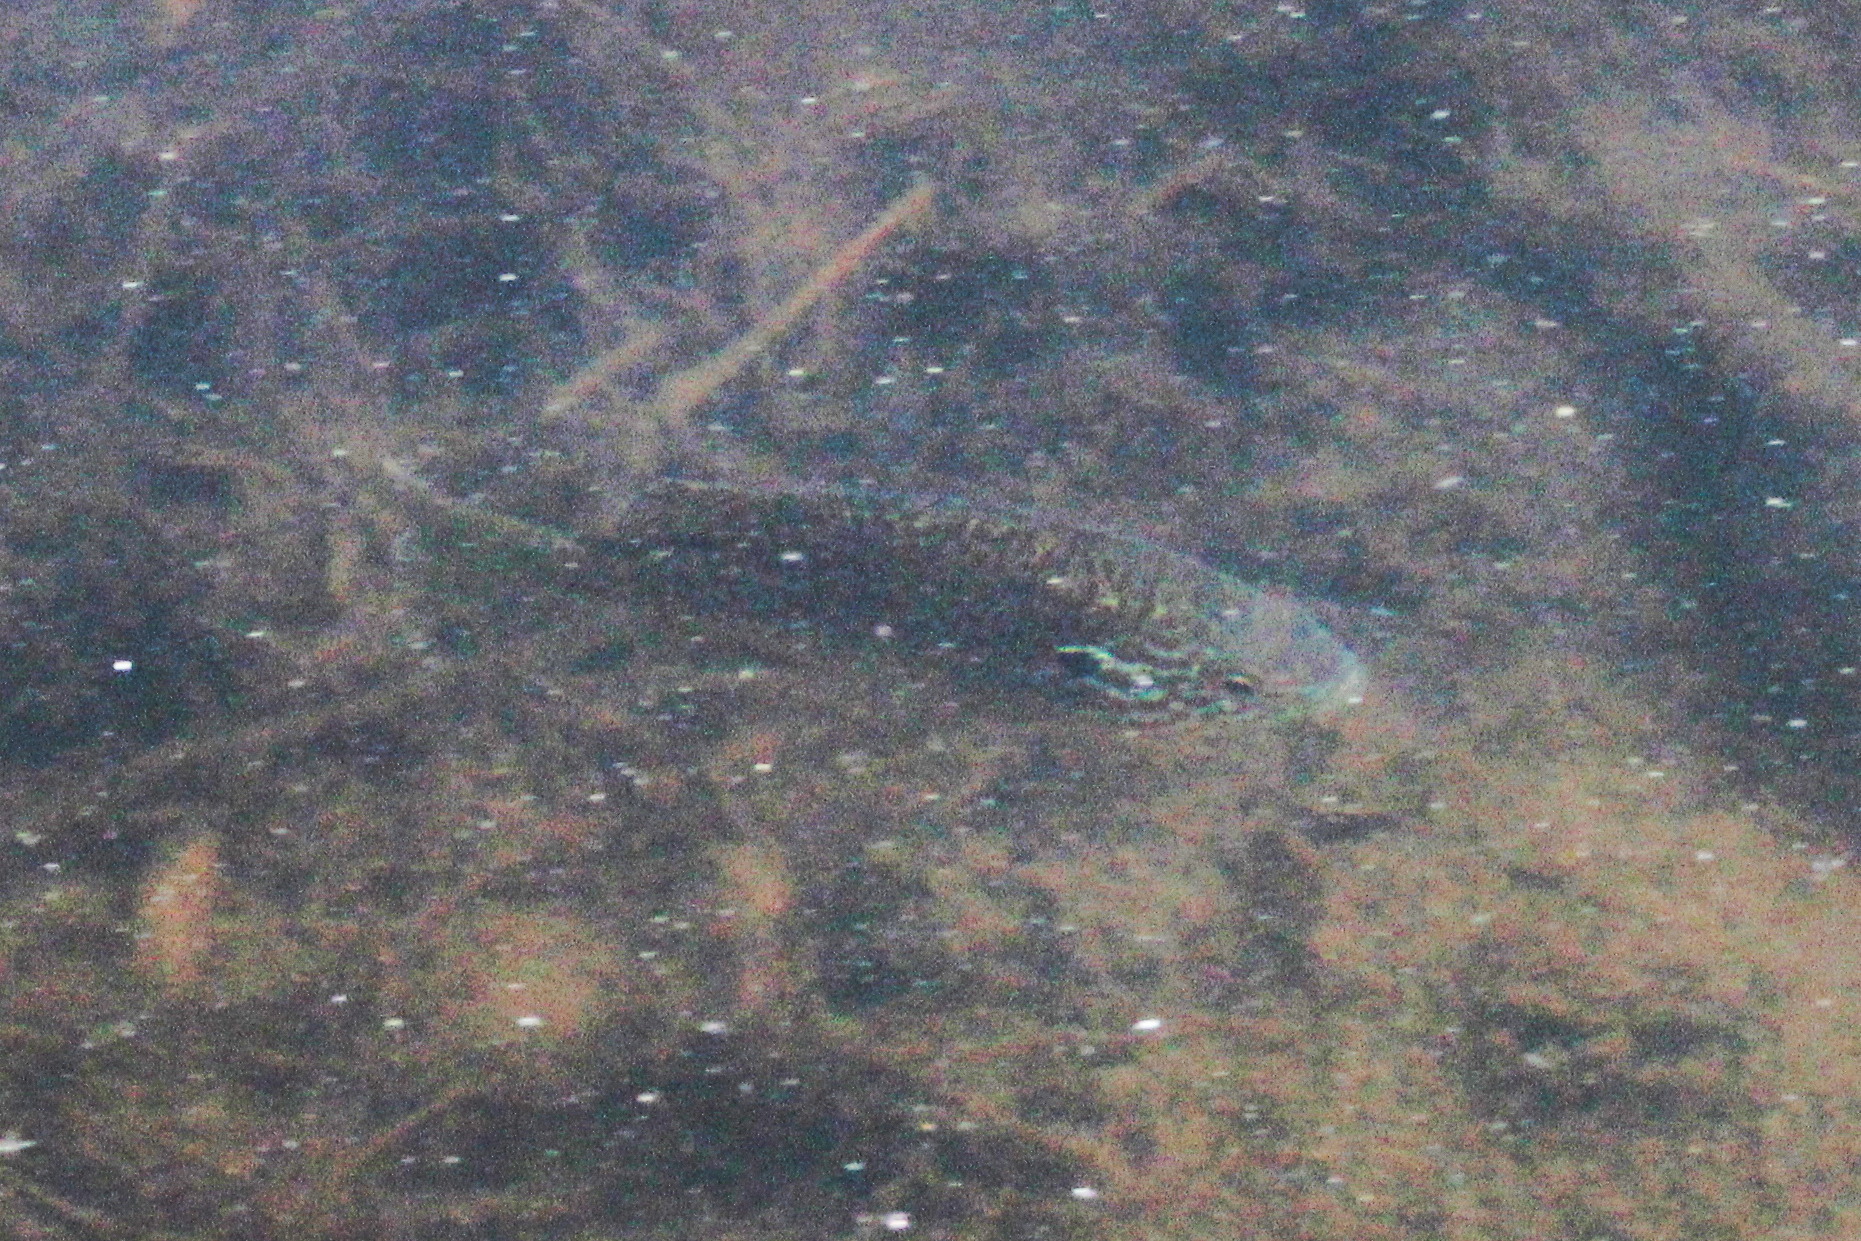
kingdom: Animalia
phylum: Chordata
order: Perciformes
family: Centrarchidae
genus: Lepomis
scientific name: Lepomis gibbosus
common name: Pumpkinseed
